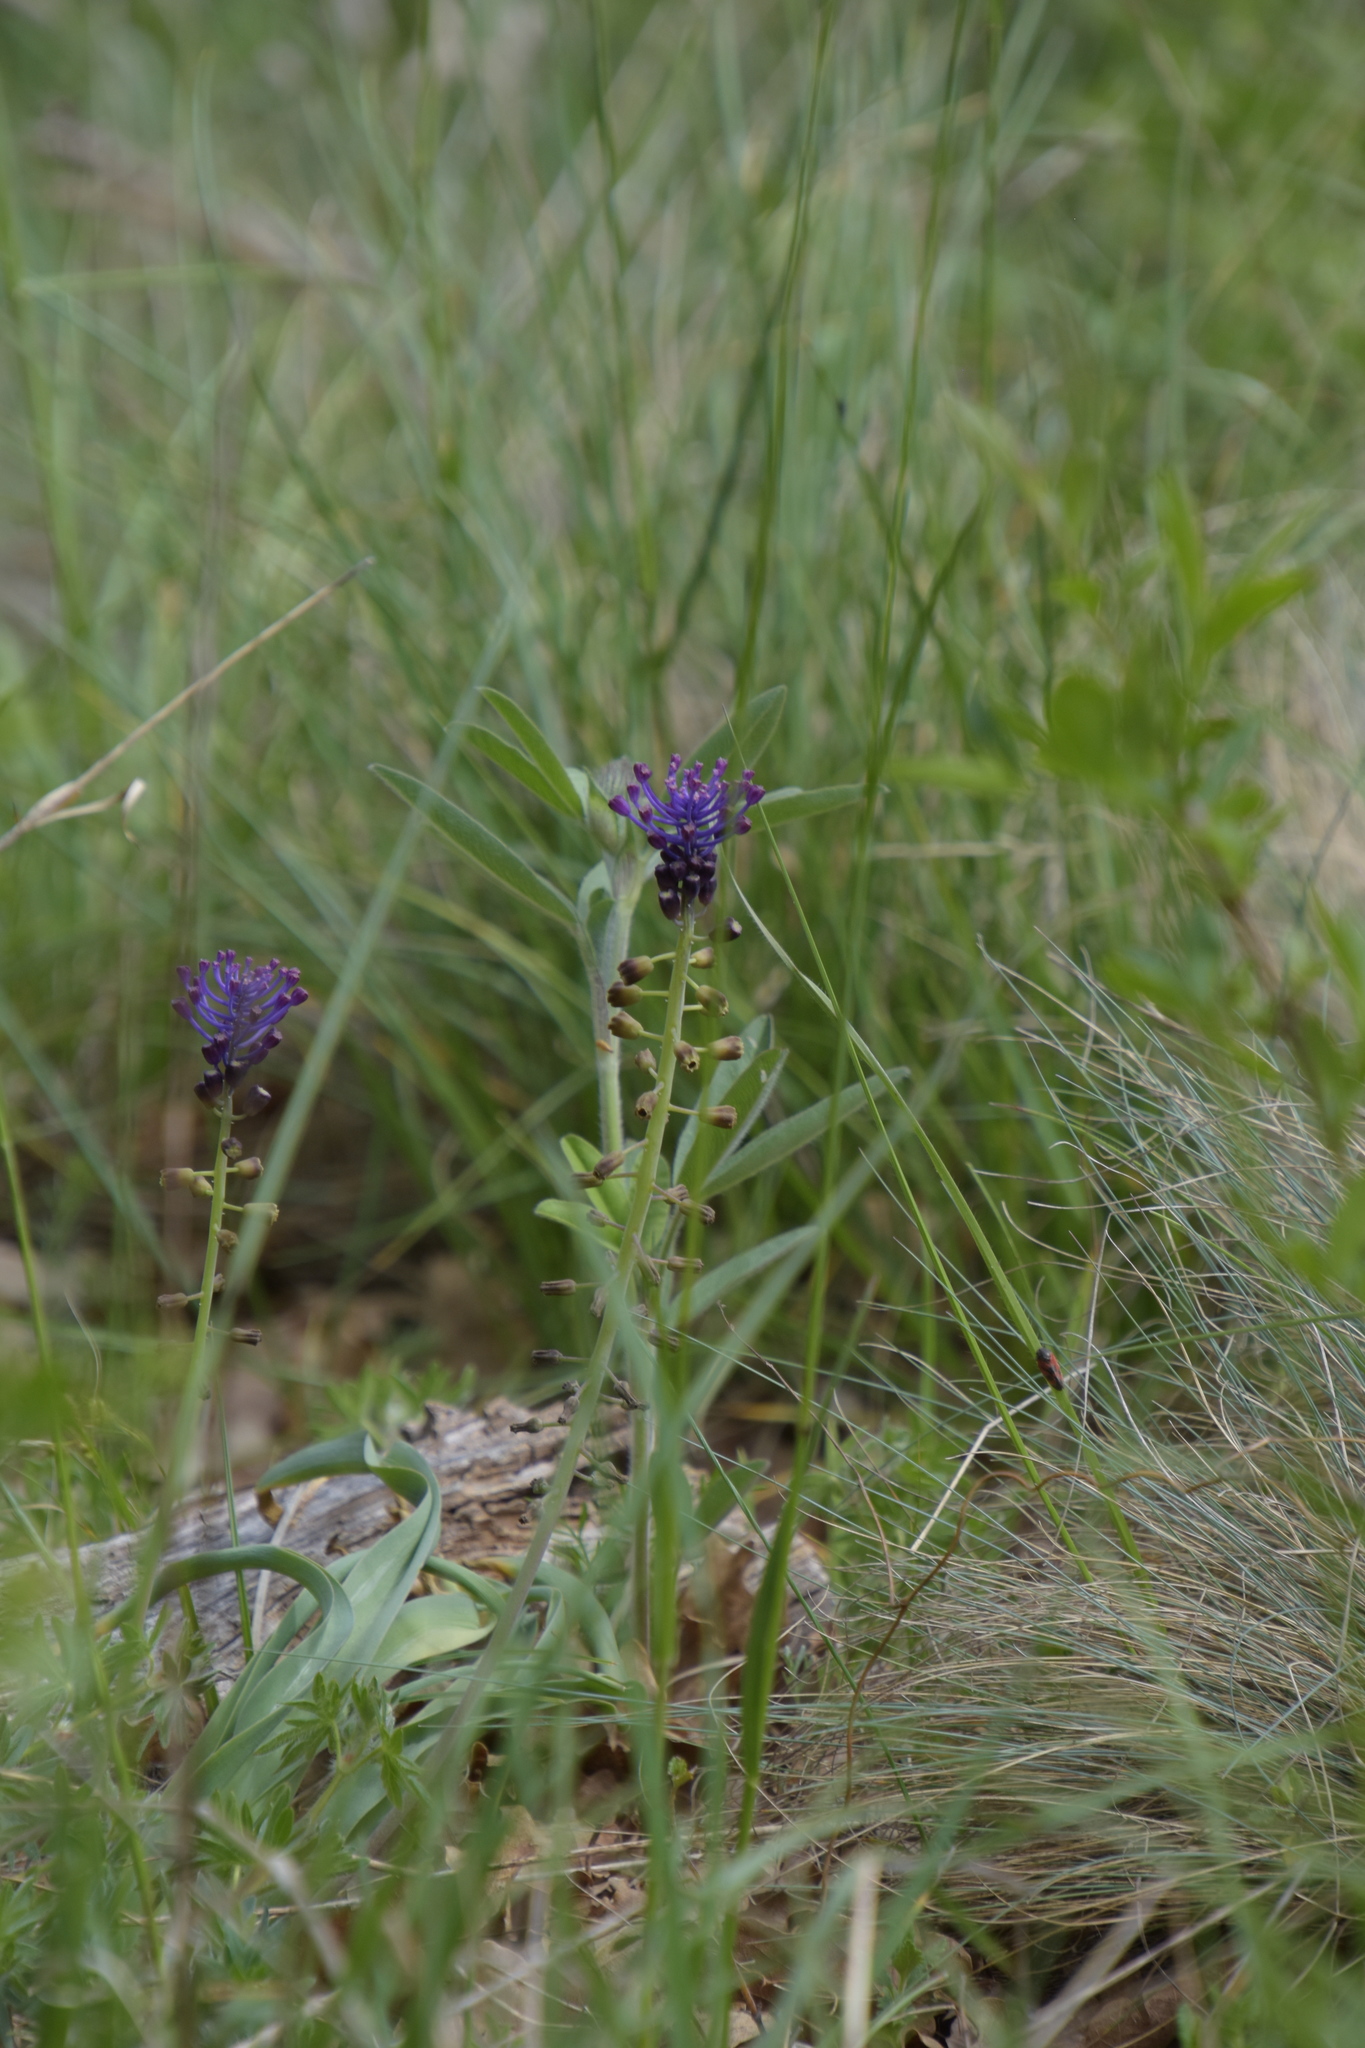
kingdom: Plantae
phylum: Tracheophyta
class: Liliopsida
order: Asparagales
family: Asparagaceae
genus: Muscari
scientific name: Muscari comosum
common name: Tassel hyacinth
